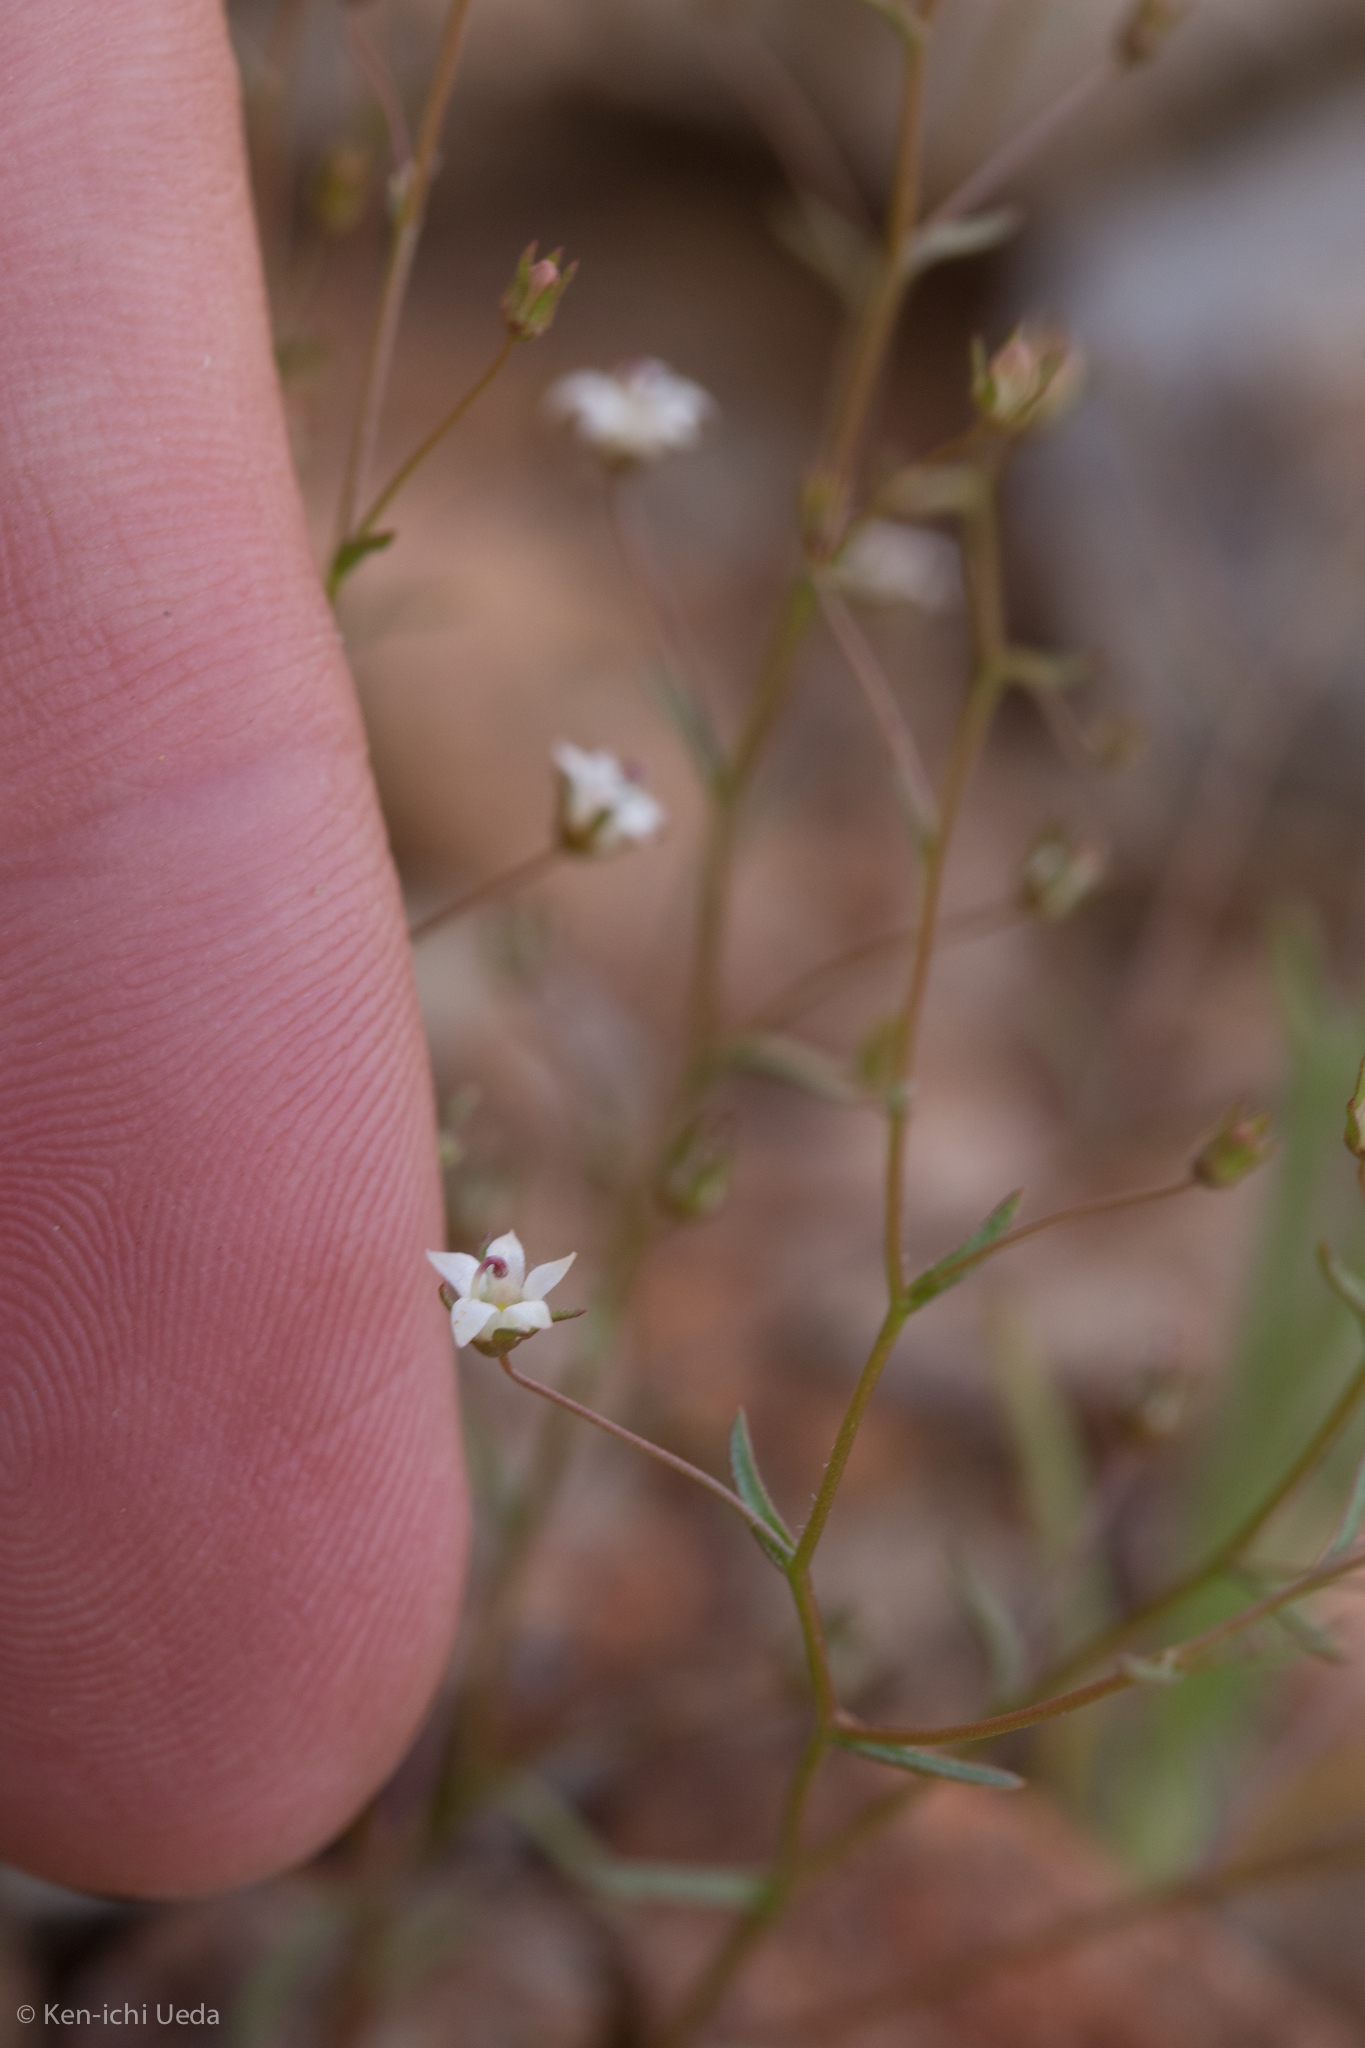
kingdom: Plantae
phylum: Tracheophyta
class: Magnoliopsida
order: Asterales
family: Campanulaceae
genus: Nemacladus
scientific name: Nemacladus glanduliferus
